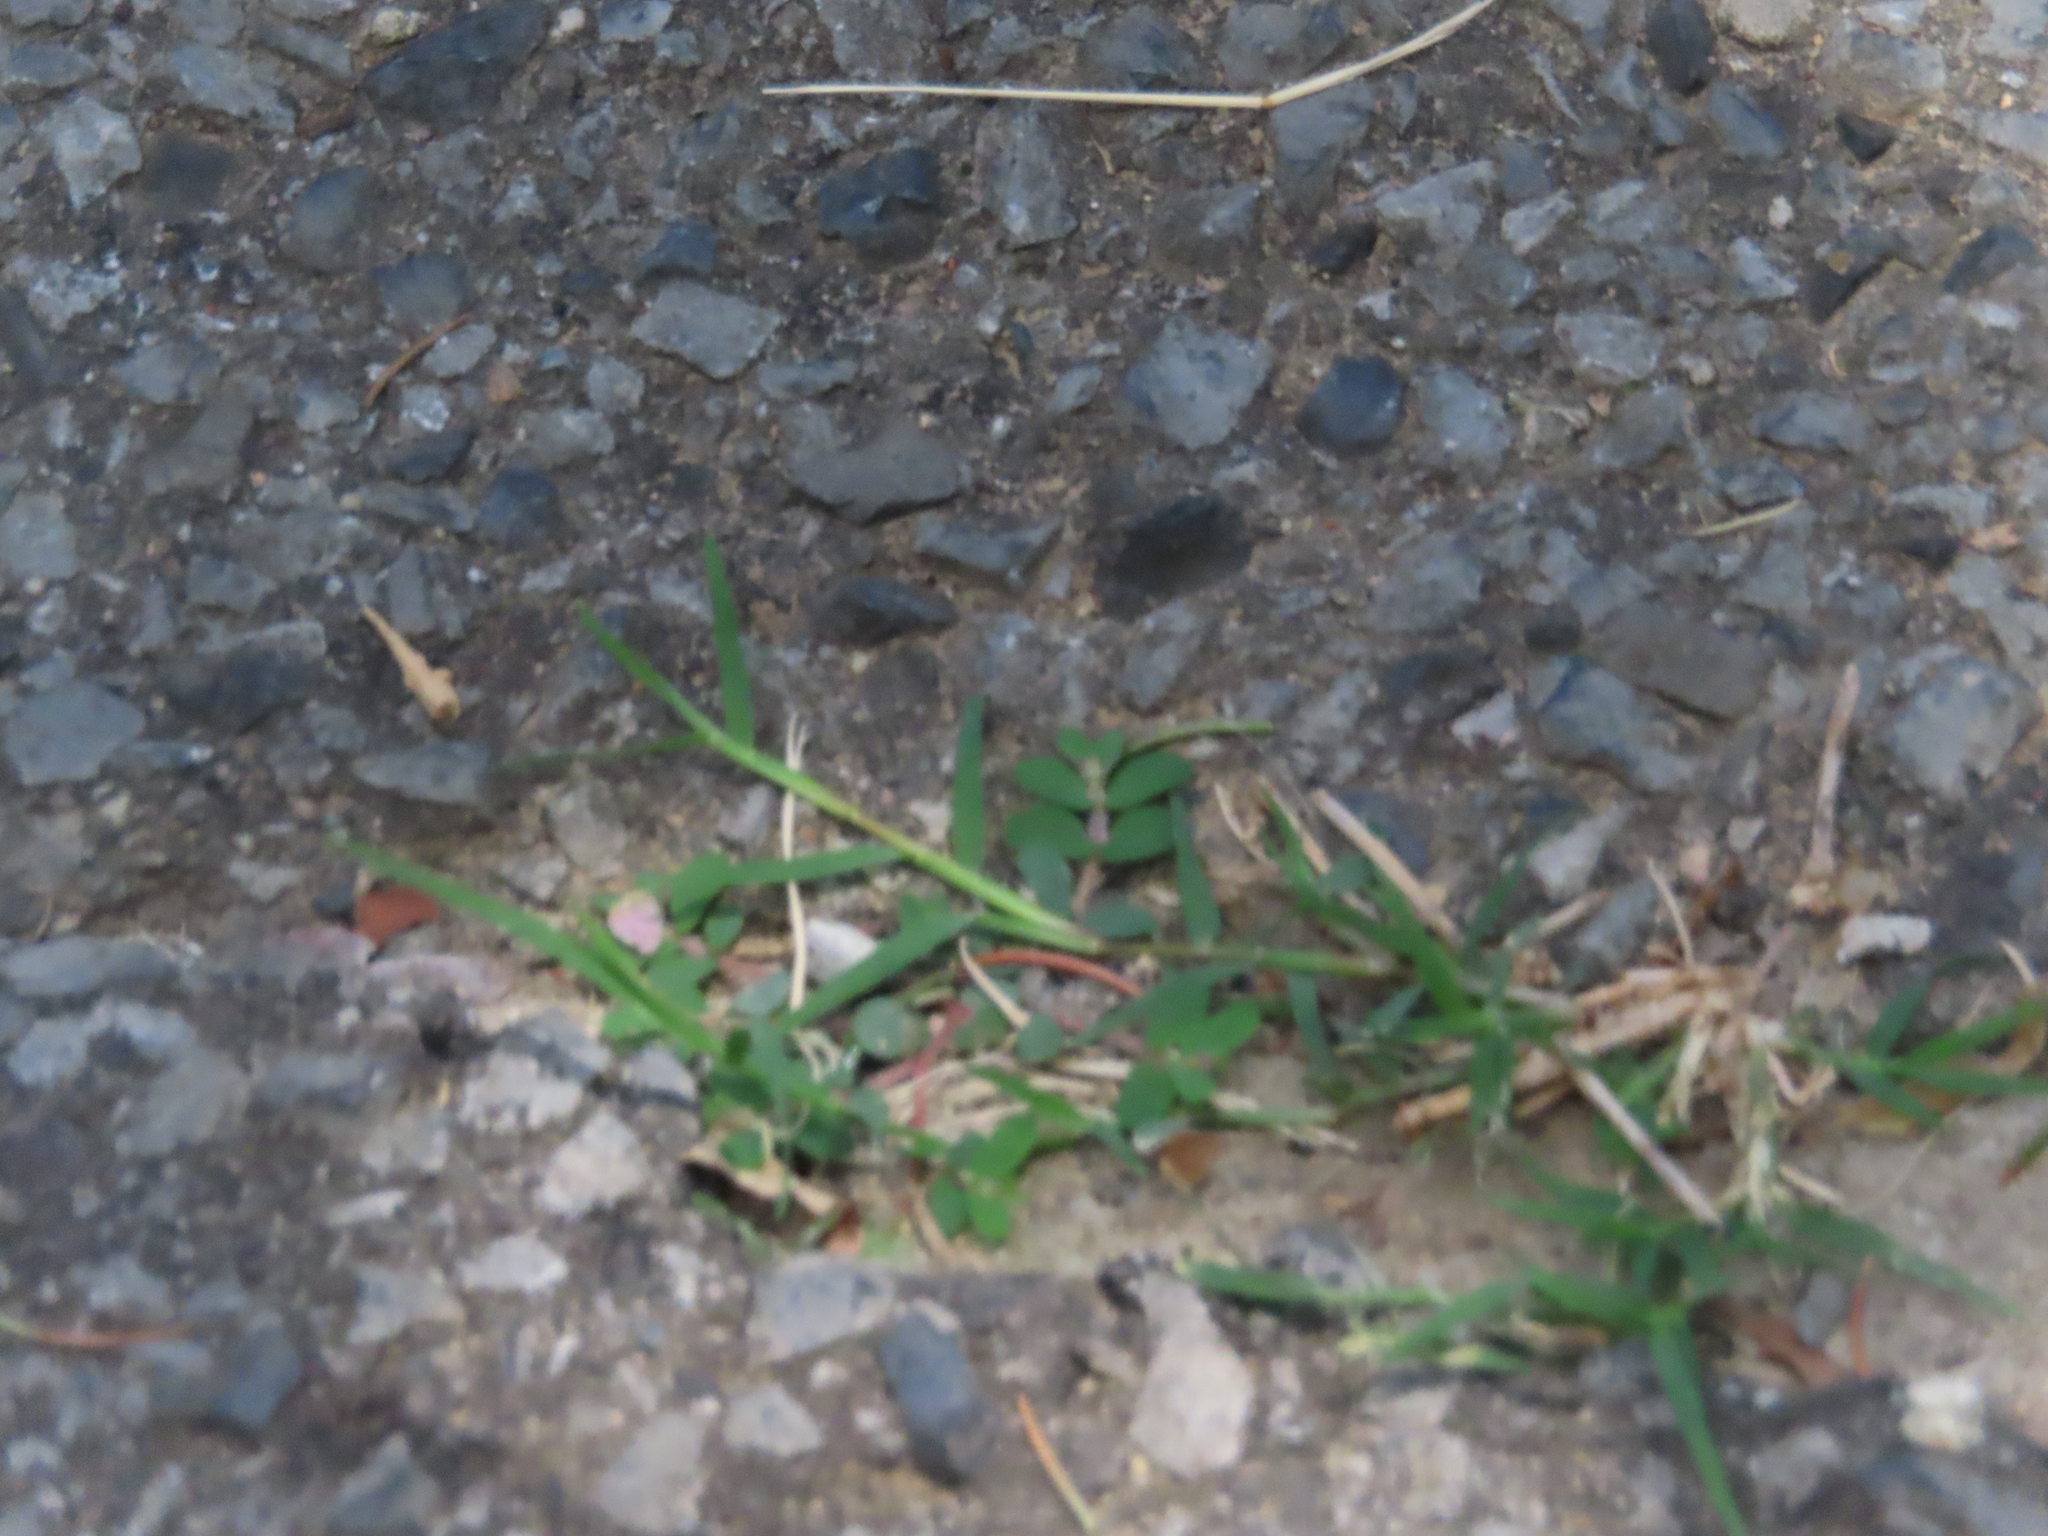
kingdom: Plantae
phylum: Tracheophyta
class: Magnoliopsida
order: Malpighiales
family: Euphorbiaceae
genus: Euphorbia
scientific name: Euphorbia maculata
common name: Spotted spurge
